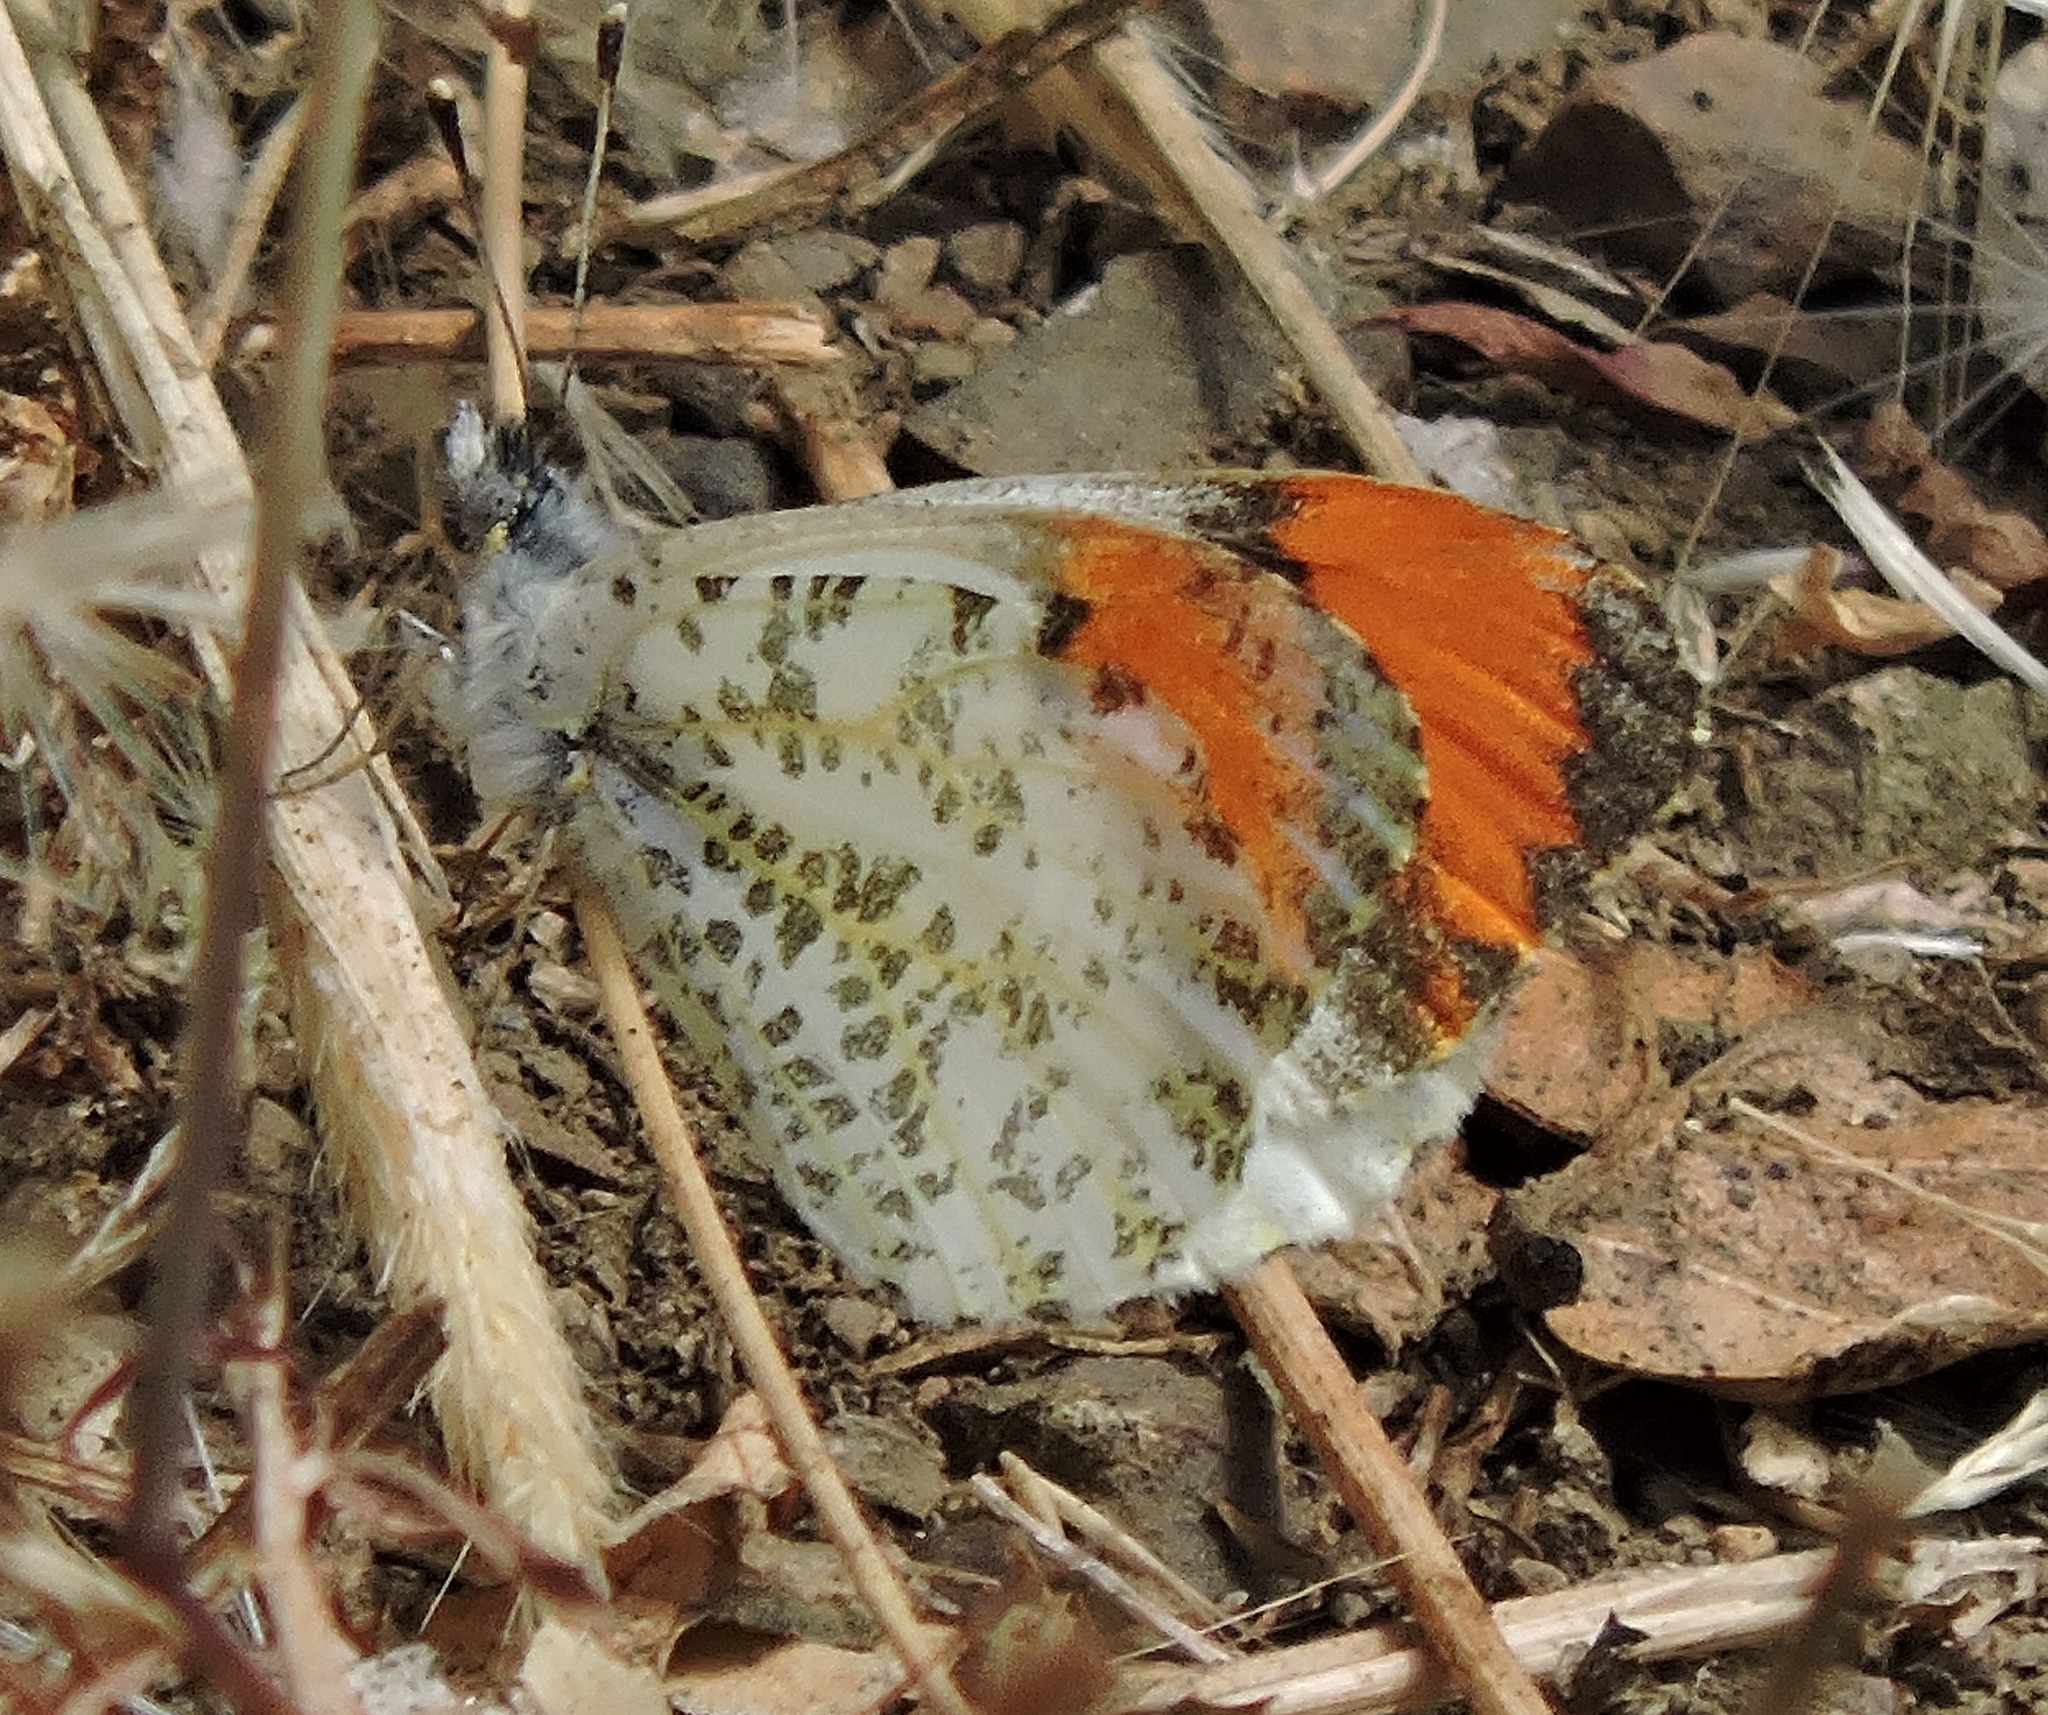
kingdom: Animalia
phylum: Arthropoda
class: Insecta
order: Lepidoptera
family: Pieridae
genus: Anthocharis
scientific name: Anthocharis sara
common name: Sara's orangetip
